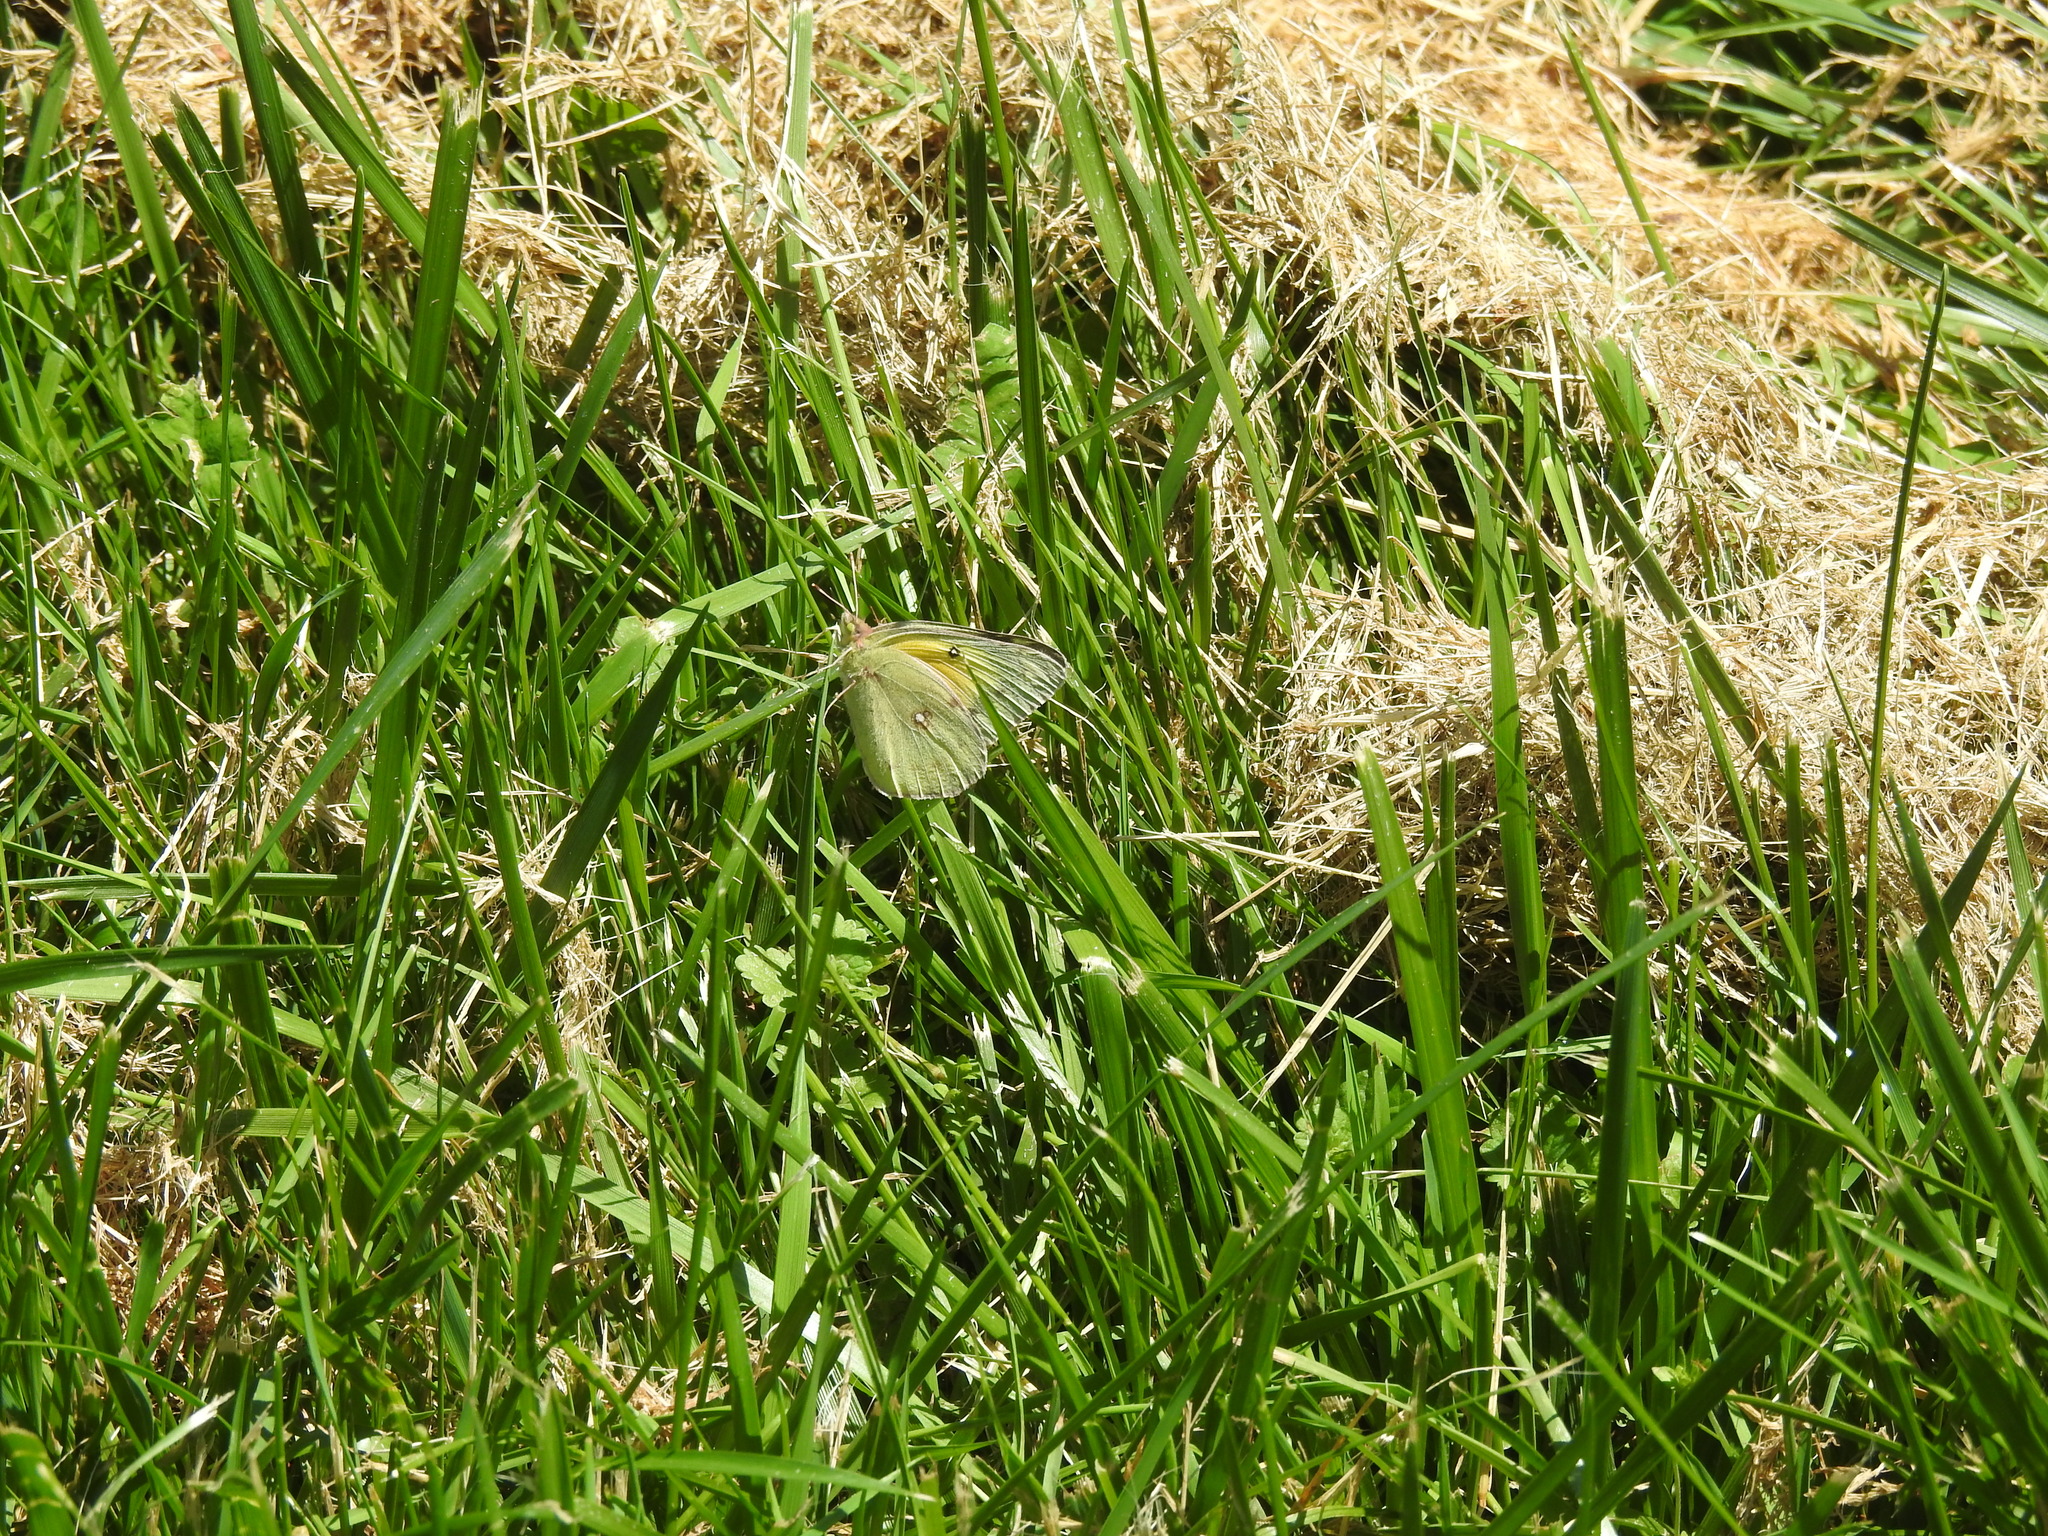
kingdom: Animalia
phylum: Arthropoda
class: Insecta
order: Lepidoptera
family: Pieridae
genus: Colias
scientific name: Colias eurytheme
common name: Alfalfa butterfly
